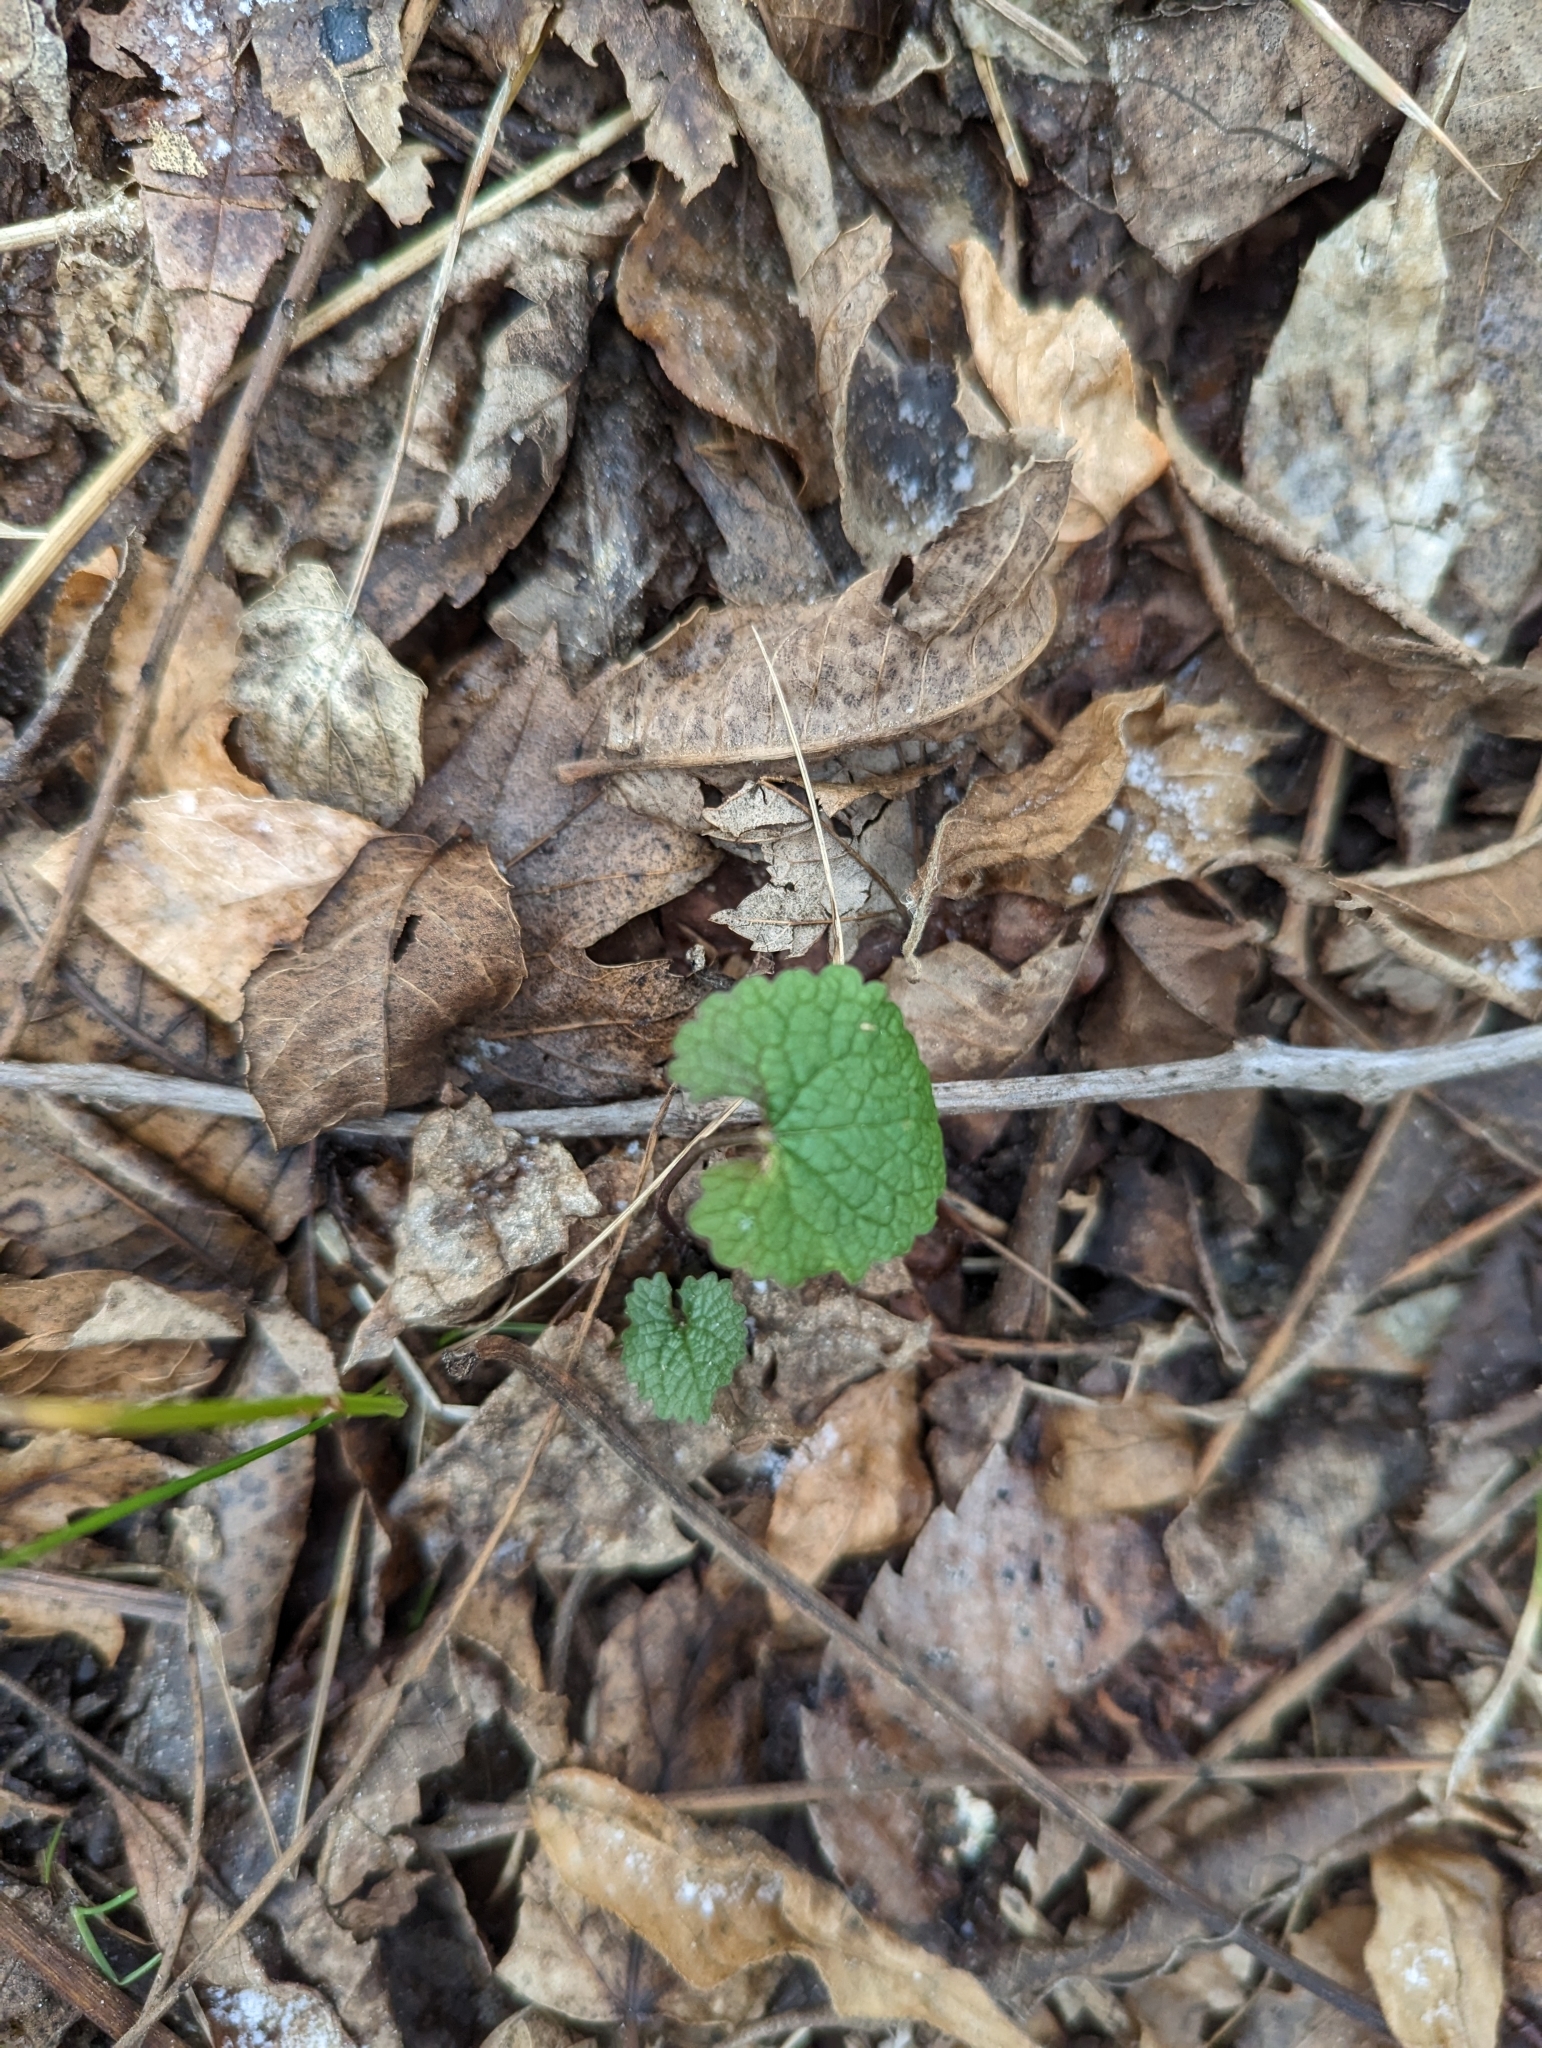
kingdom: Plantae
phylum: Tracheophyta
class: Magnoliopsida
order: Brassicales
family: Brassicaceae
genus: Alliaria
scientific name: Alliaria petiolata
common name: Garlic mustard
